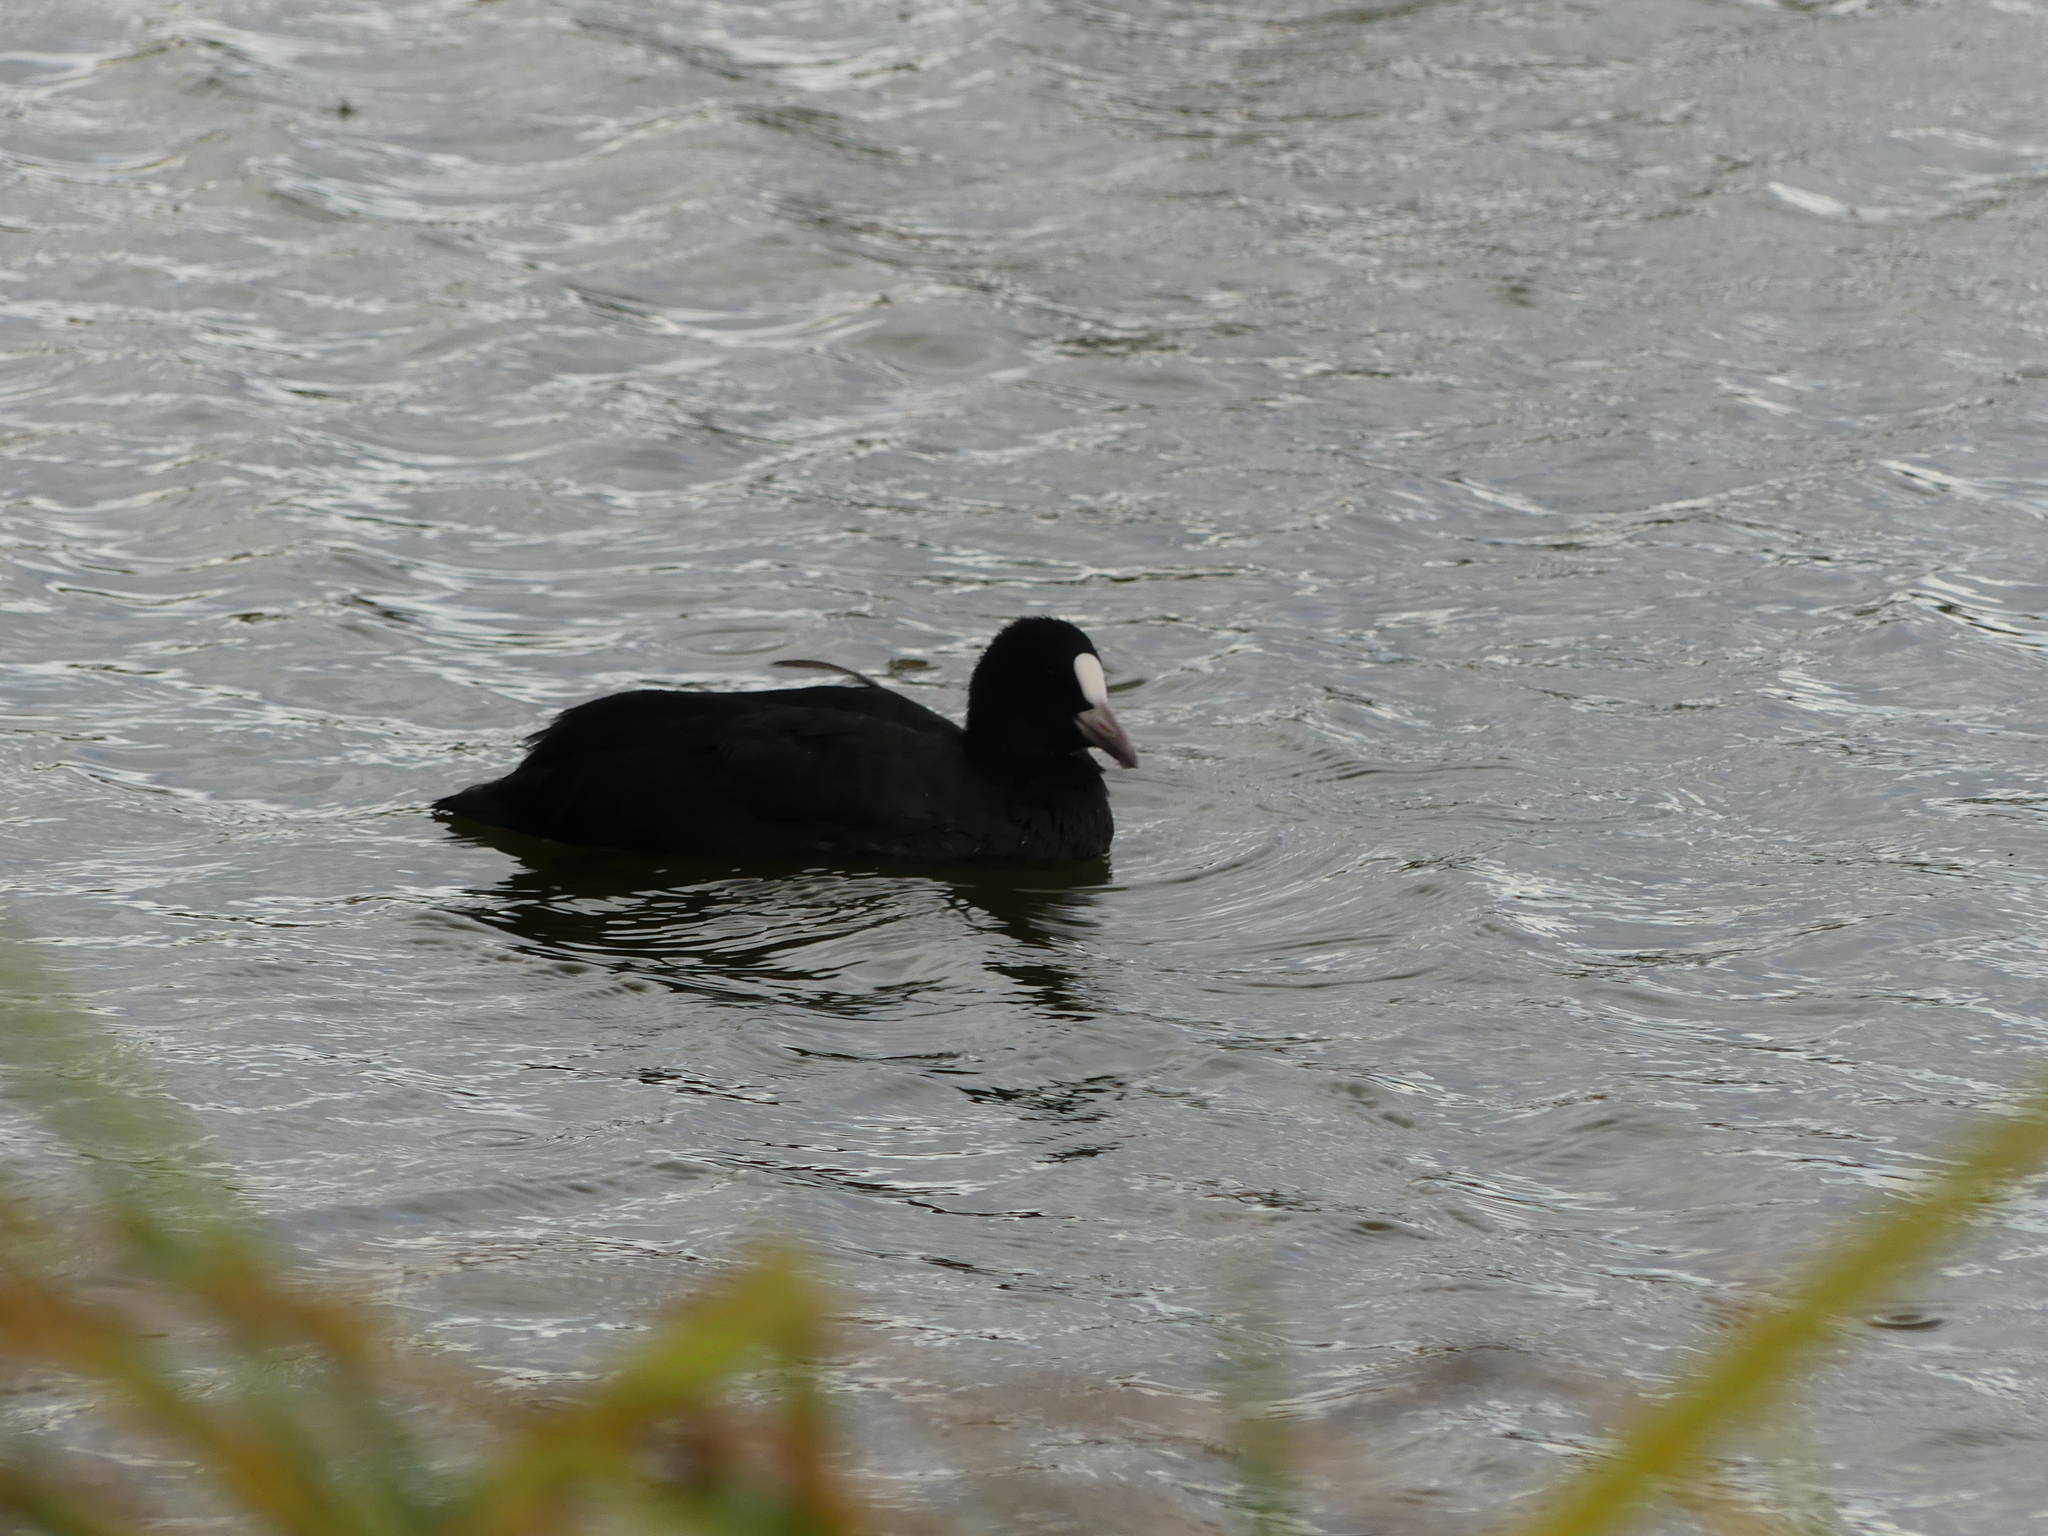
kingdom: Animalia
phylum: Chordata
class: Aves
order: Gruiformes
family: Rallidae
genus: Fulica
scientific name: Fulica atra
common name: Eurasian coot
